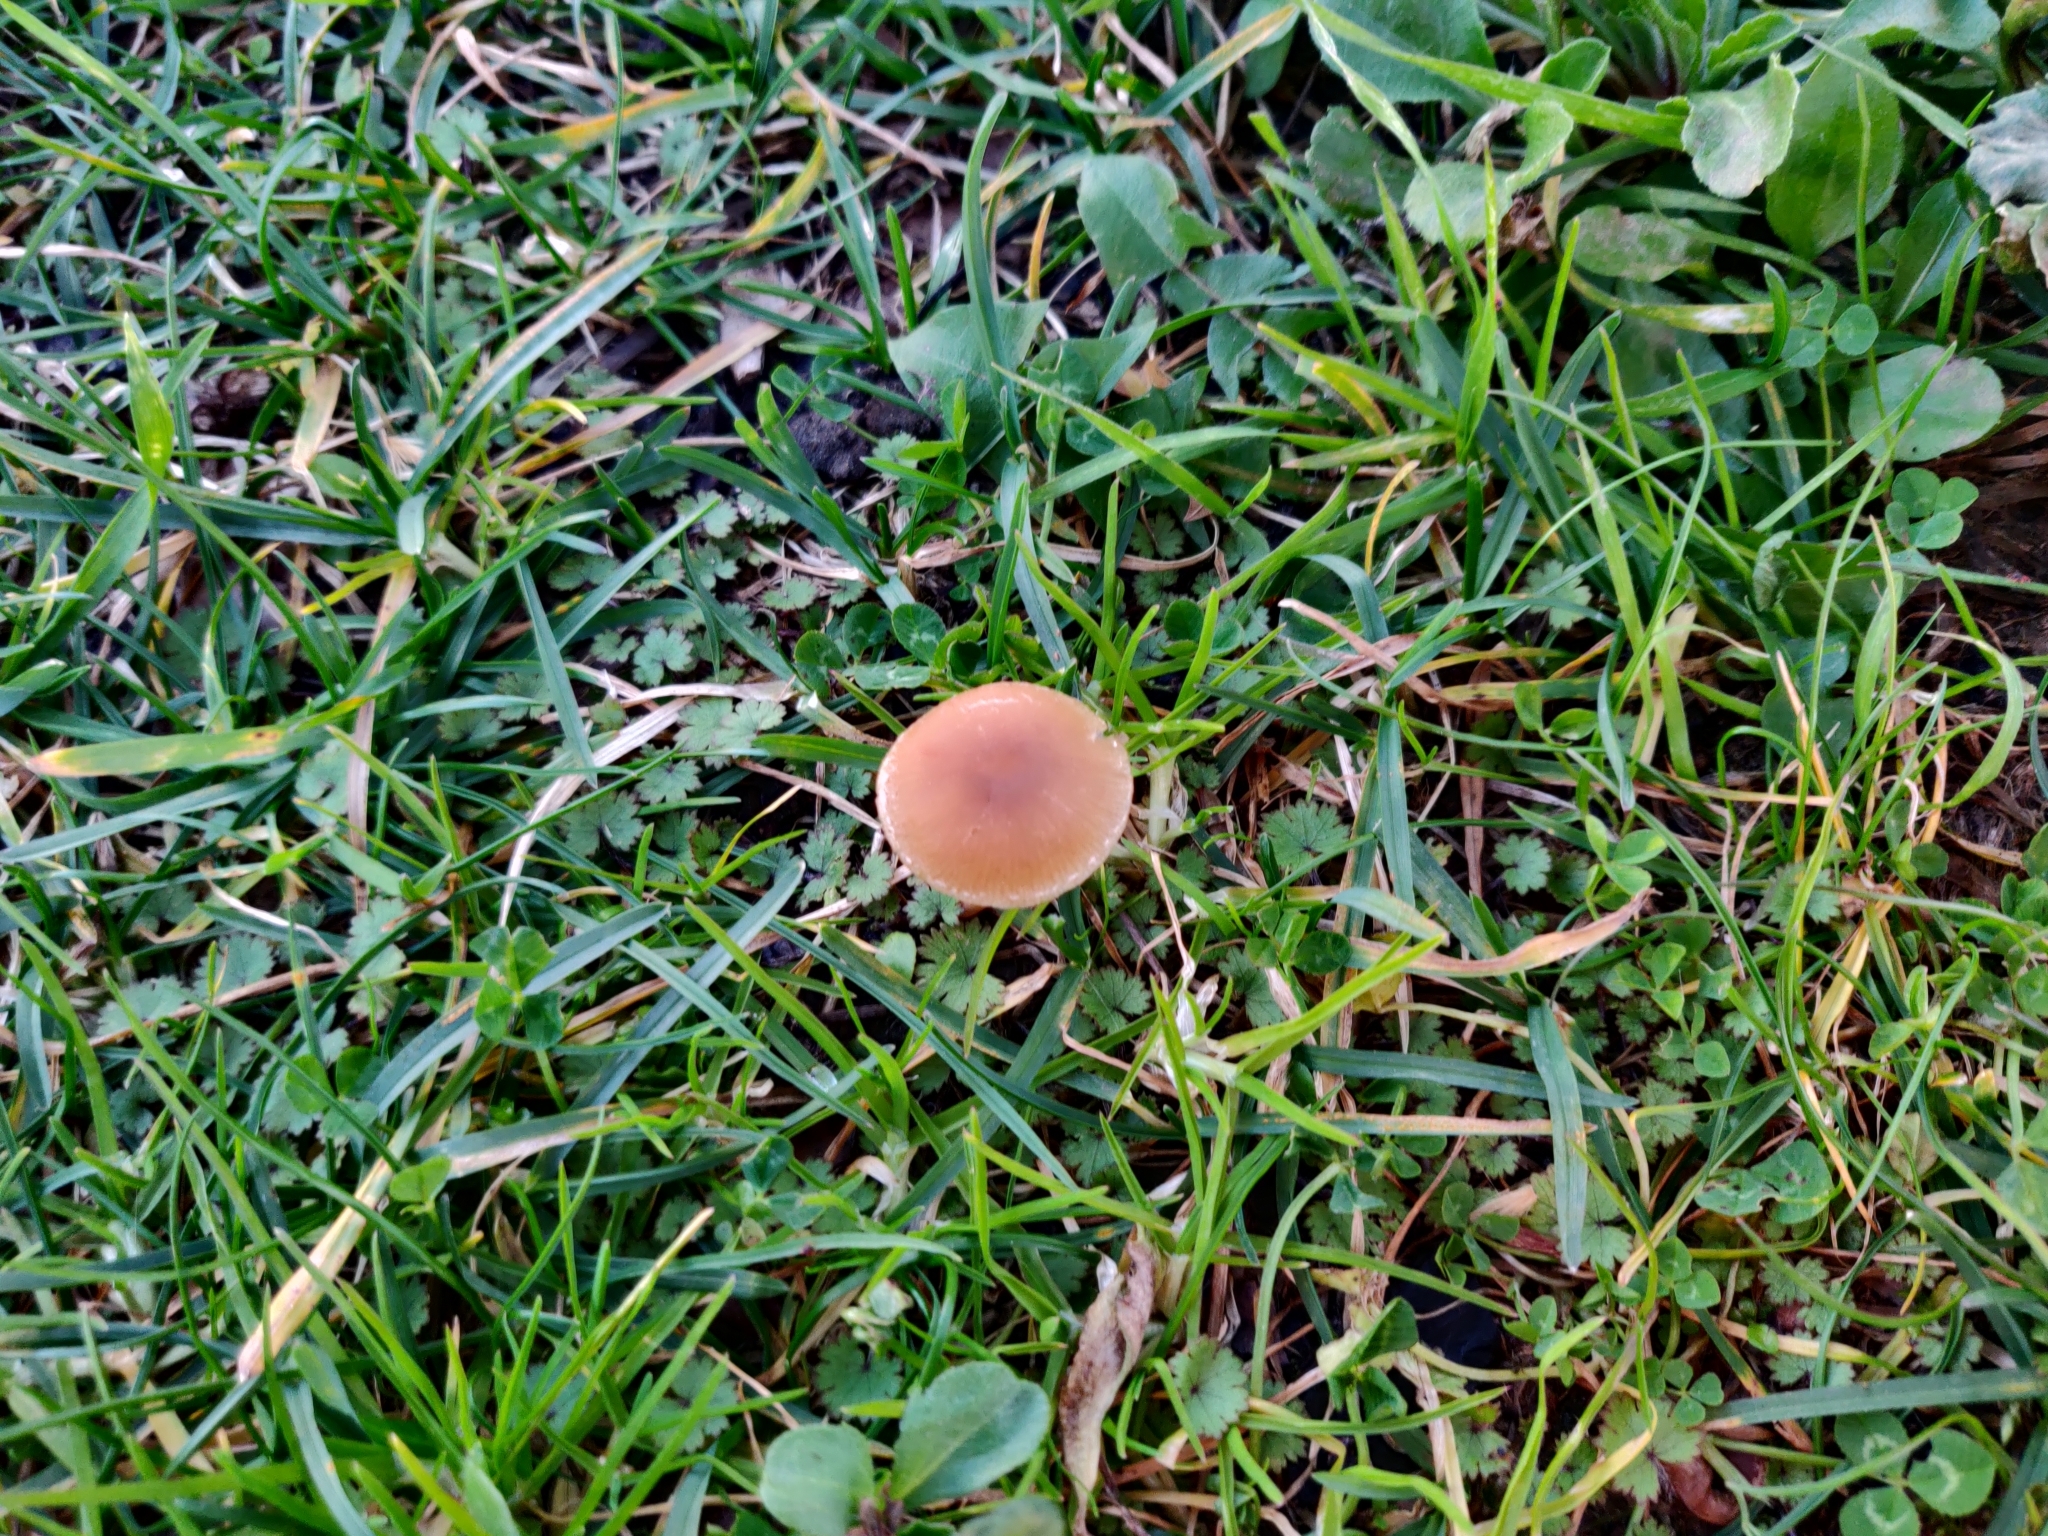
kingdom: Fungi
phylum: Basidiomycota
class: Agaricomycetes
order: Agaricales
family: Tubariaceae
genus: Tubaria
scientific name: Tubaria furfuracea
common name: Scurfy twiglet
